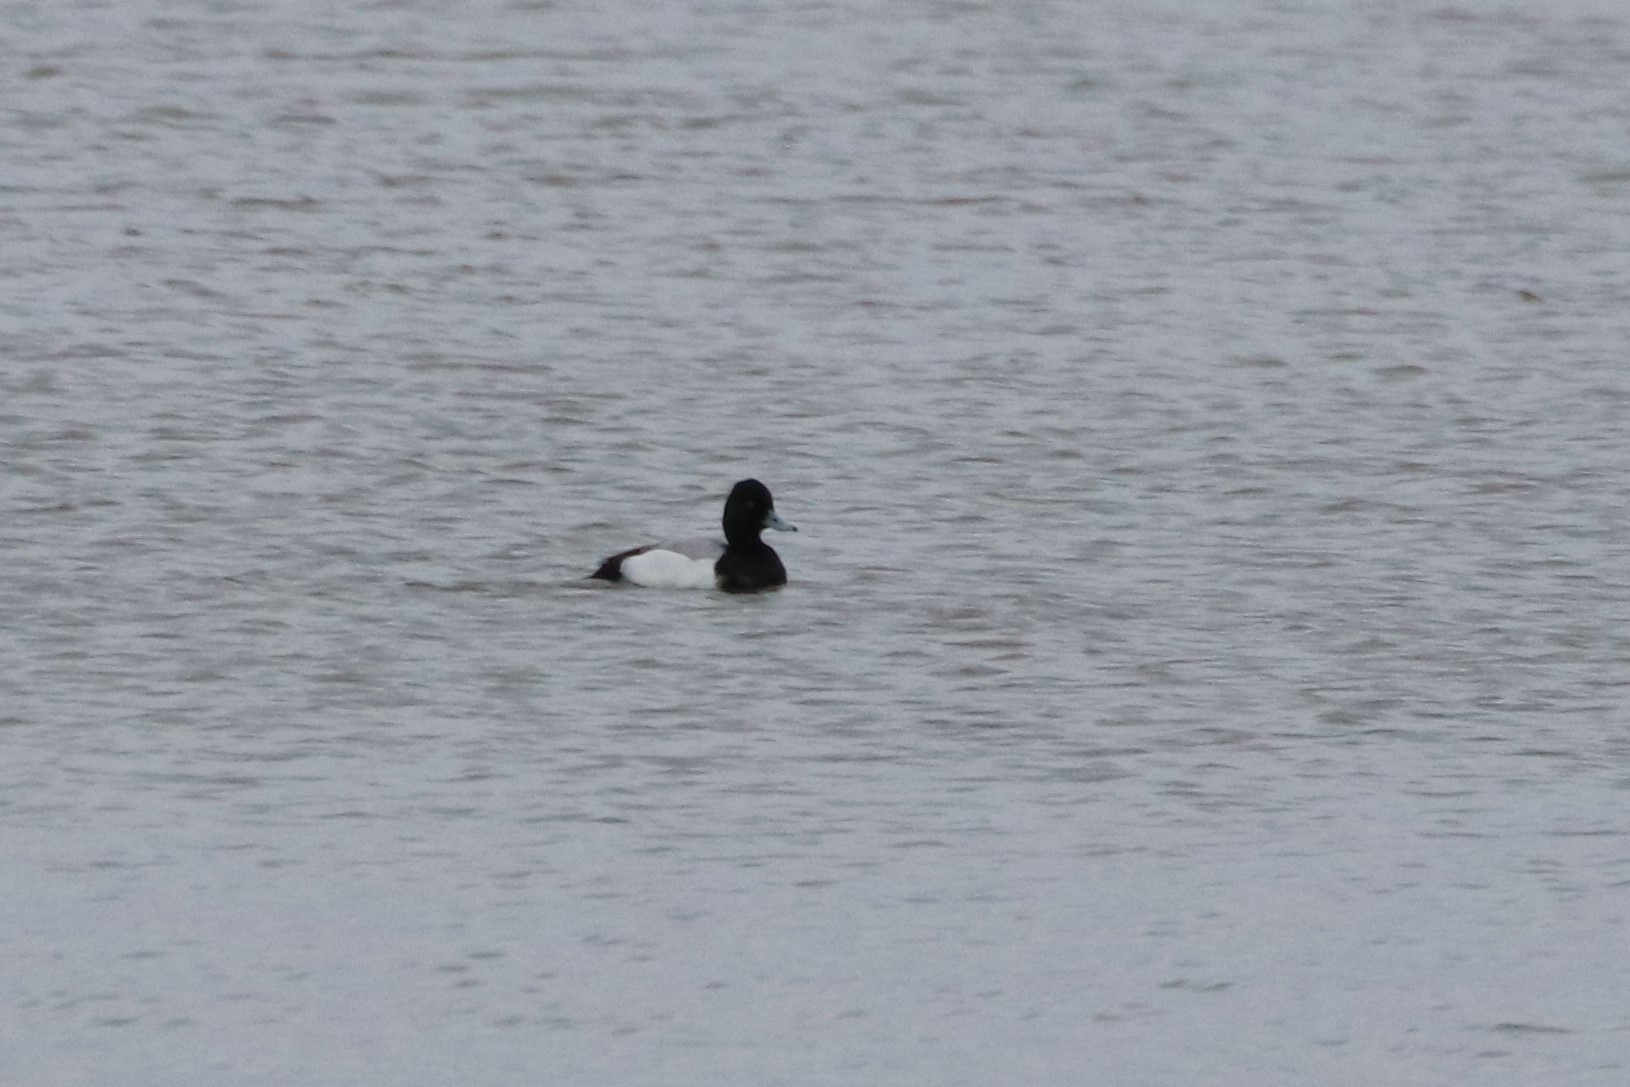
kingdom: Animalia
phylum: Chordata
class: Aves
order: Anseriformes
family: Anatidae
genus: Aythya
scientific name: Aythya affinis
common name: Lesser scaup
